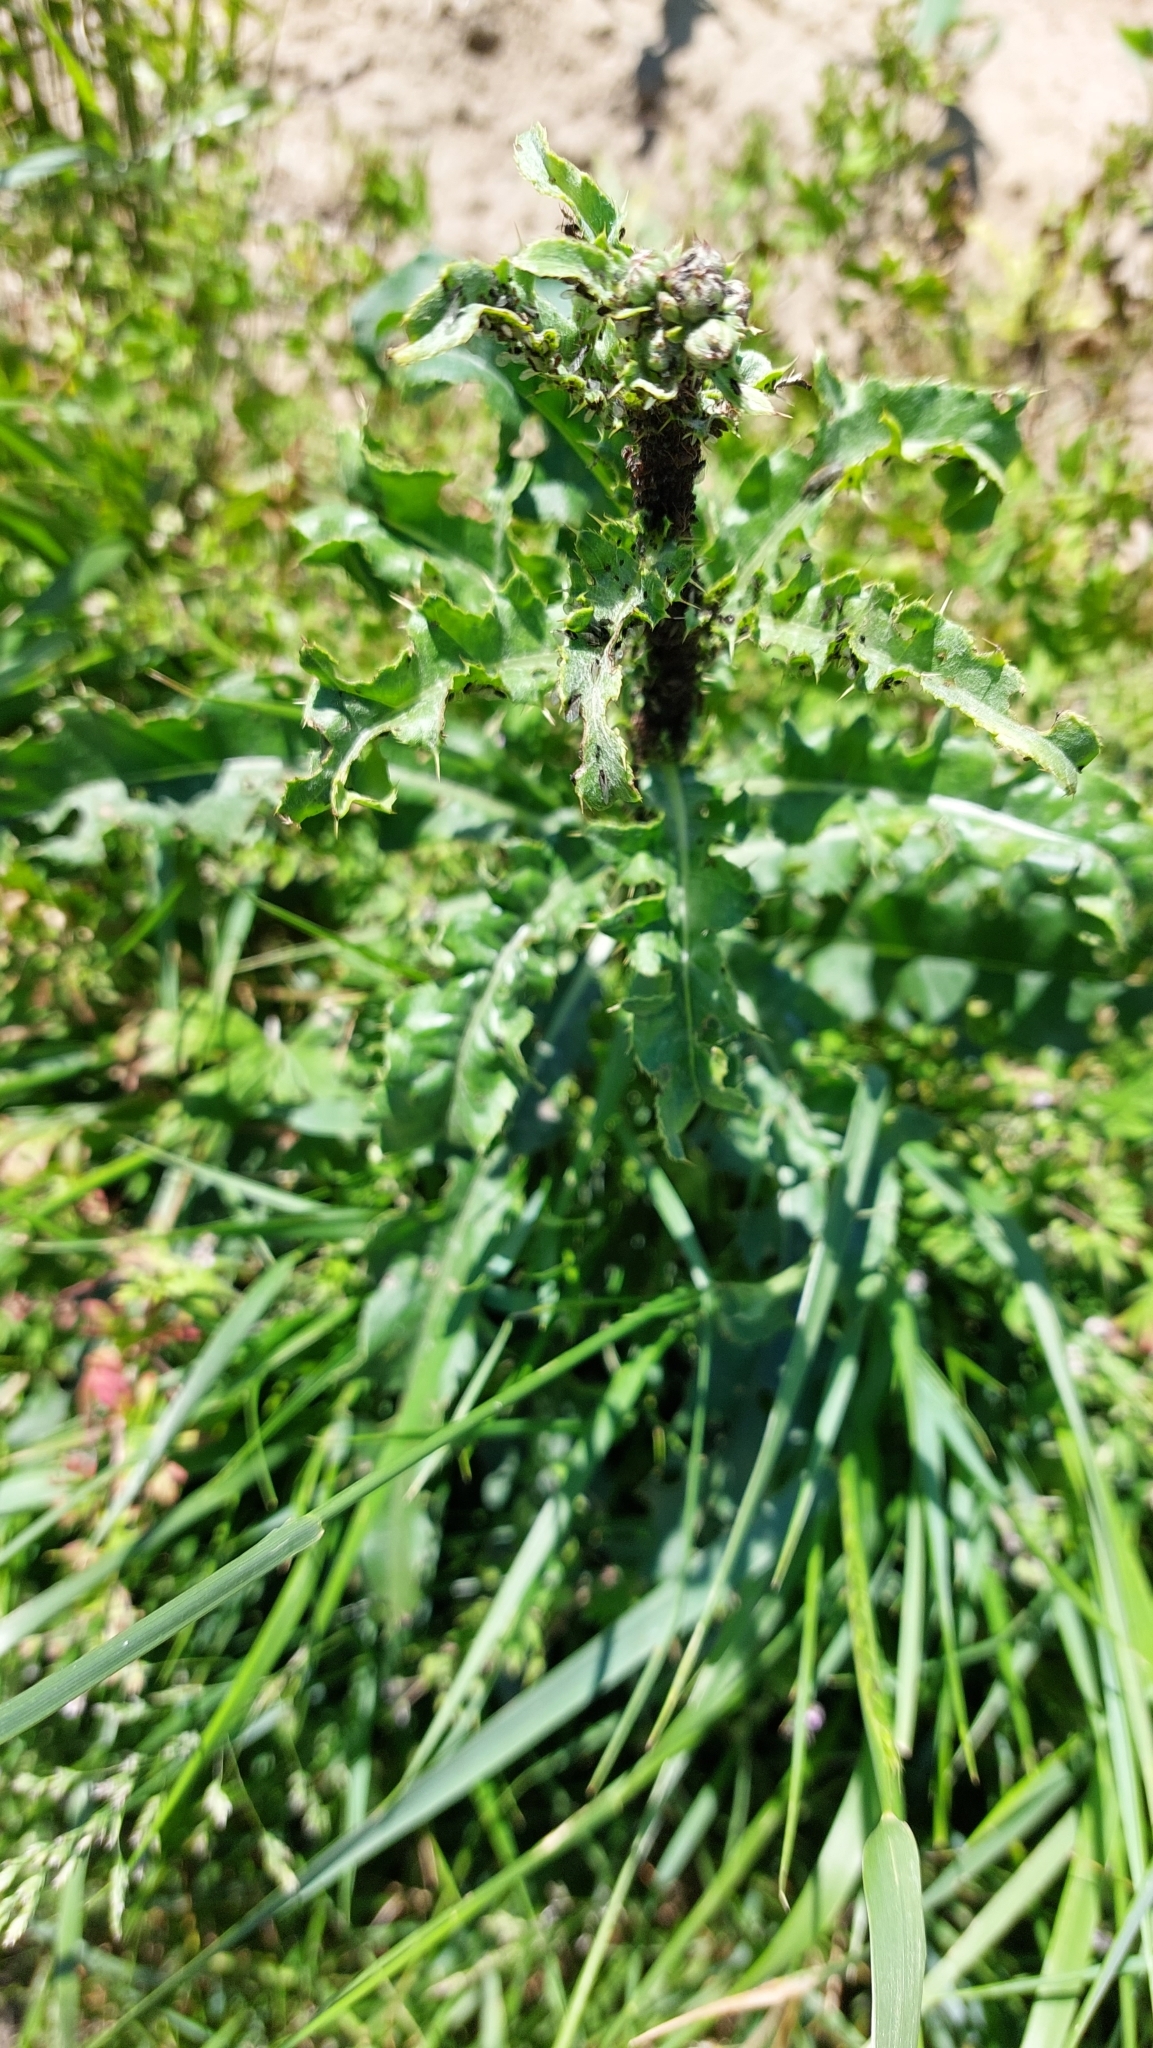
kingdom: Plantae
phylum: Tracheophyta
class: Magnoliopsida
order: Asterales
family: Asteraceae
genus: Cirsium
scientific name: Cirsium arvense
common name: Creeping thistle
